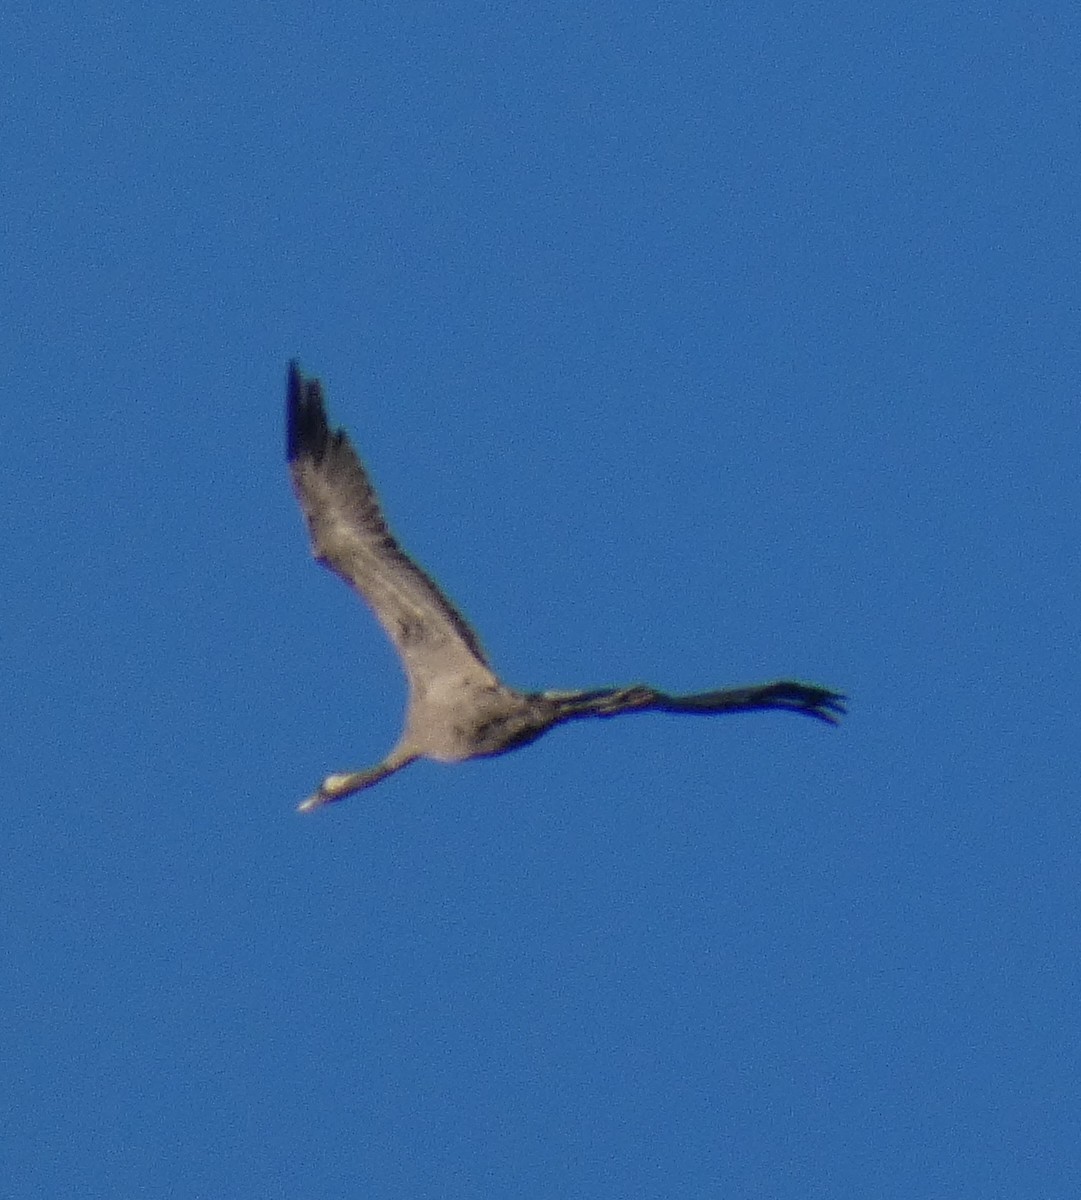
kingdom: Animalia
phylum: Chordata
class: Aves
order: Gruiformes
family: Gruidae
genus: Grus
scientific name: Grus grus
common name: Common crane
